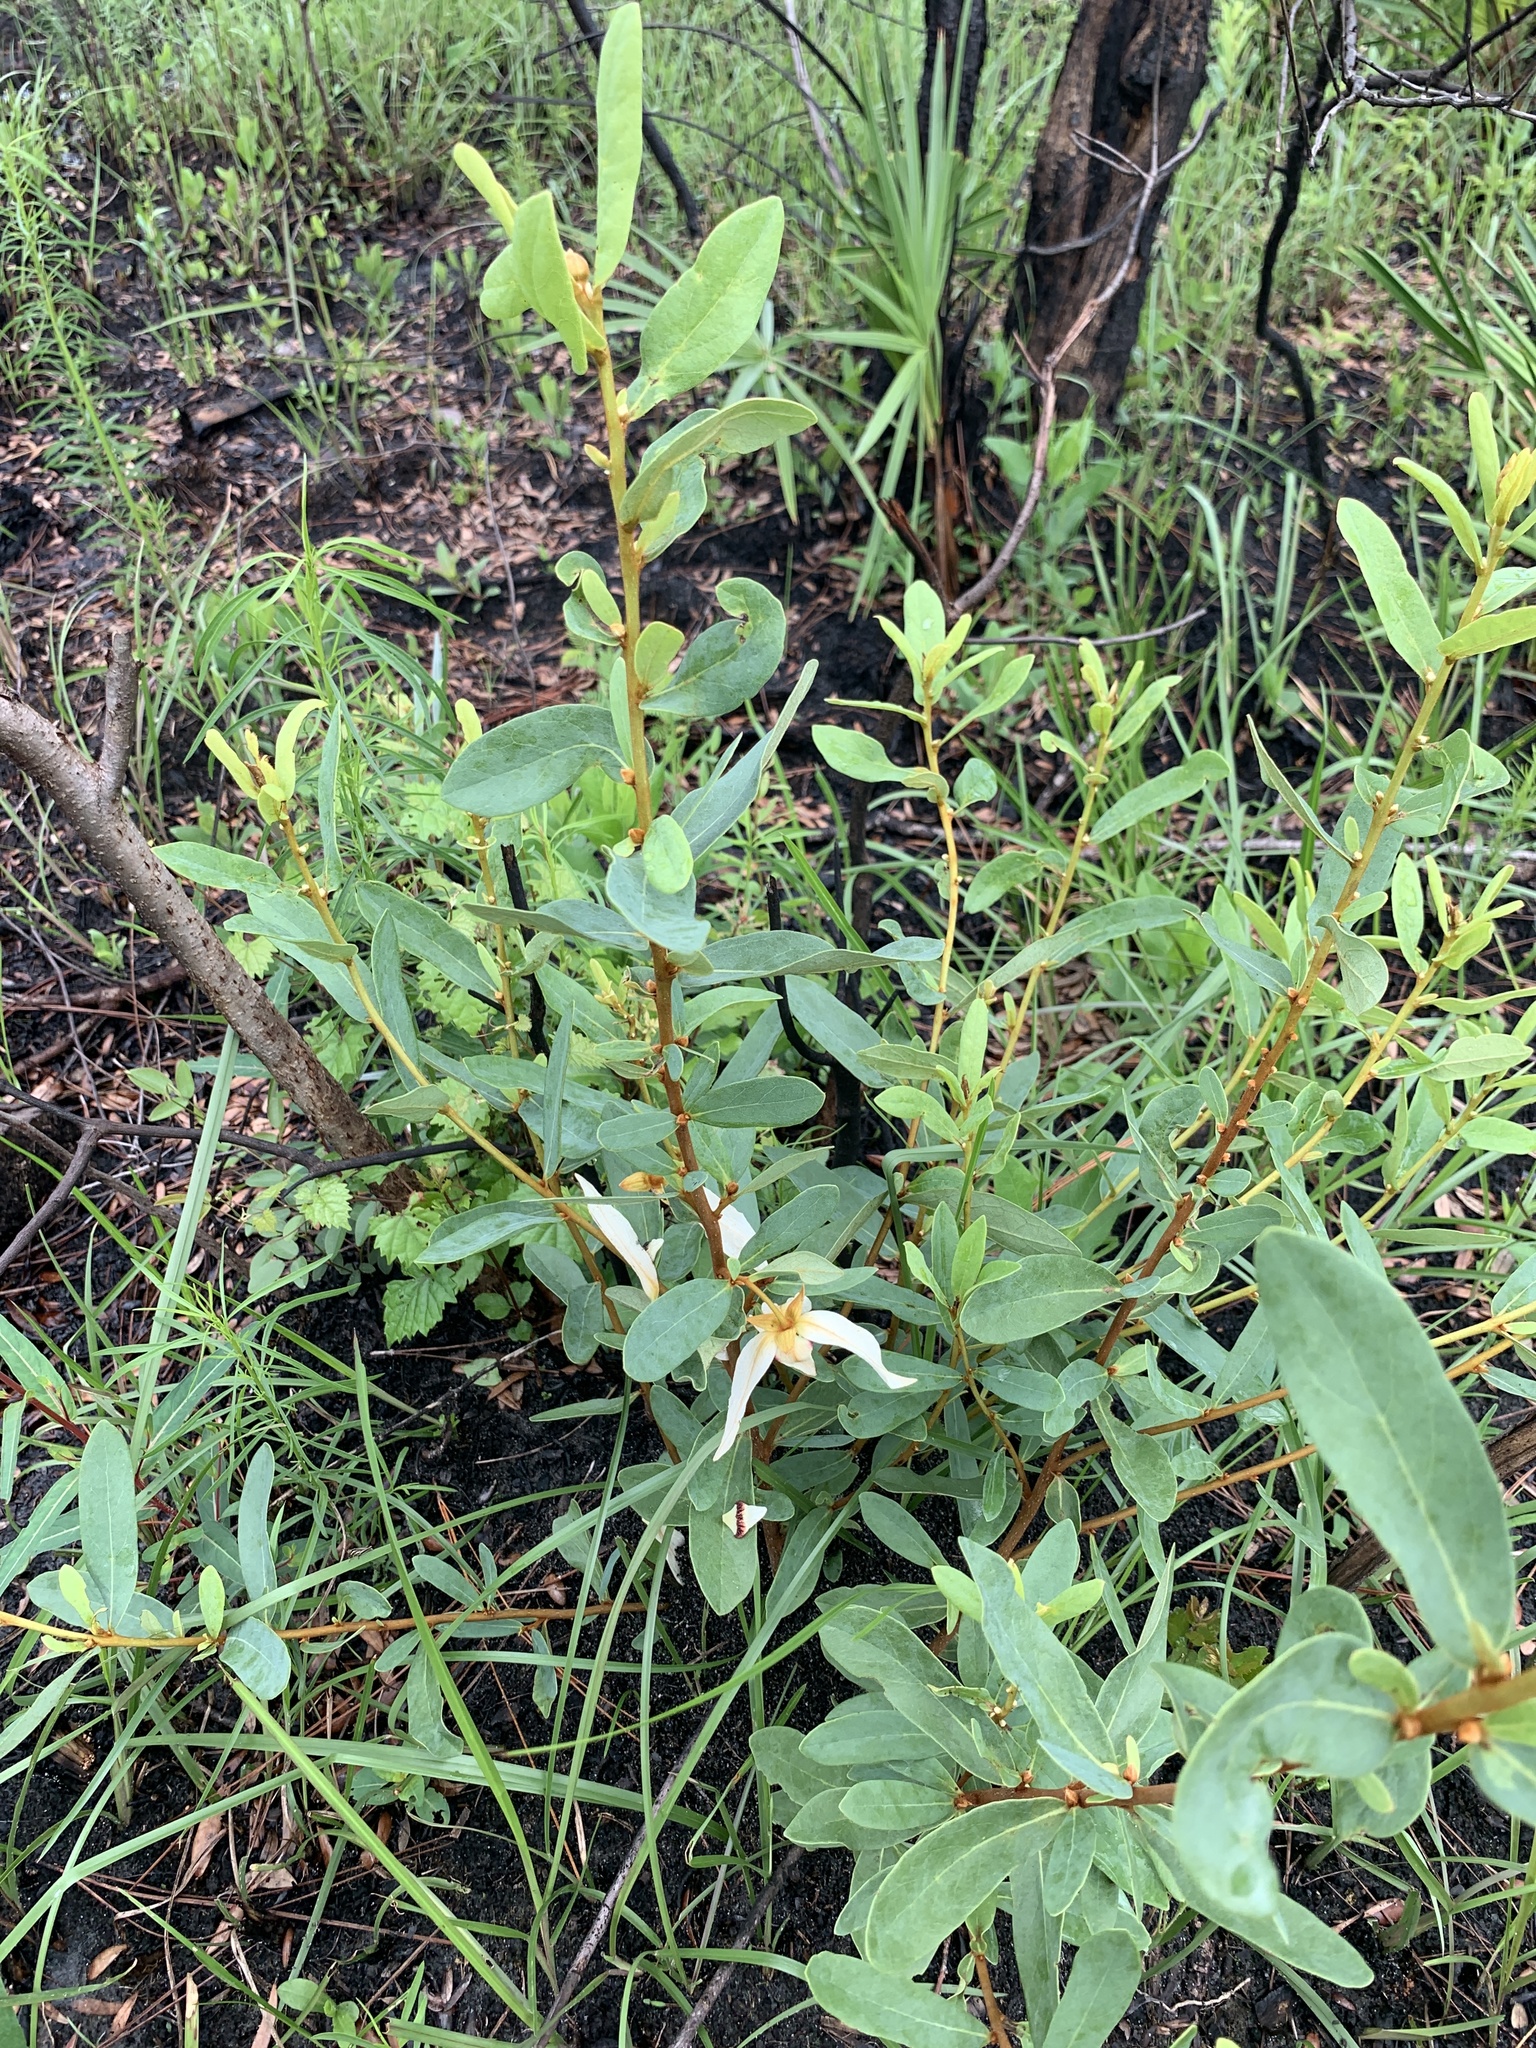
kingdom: Plantae
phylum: Tracheophyta
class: Magnoliopsida
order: Magnoliales
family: Annonaceae
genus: Asimina
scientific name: Asimina reticulata
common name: Flag pawpaw
